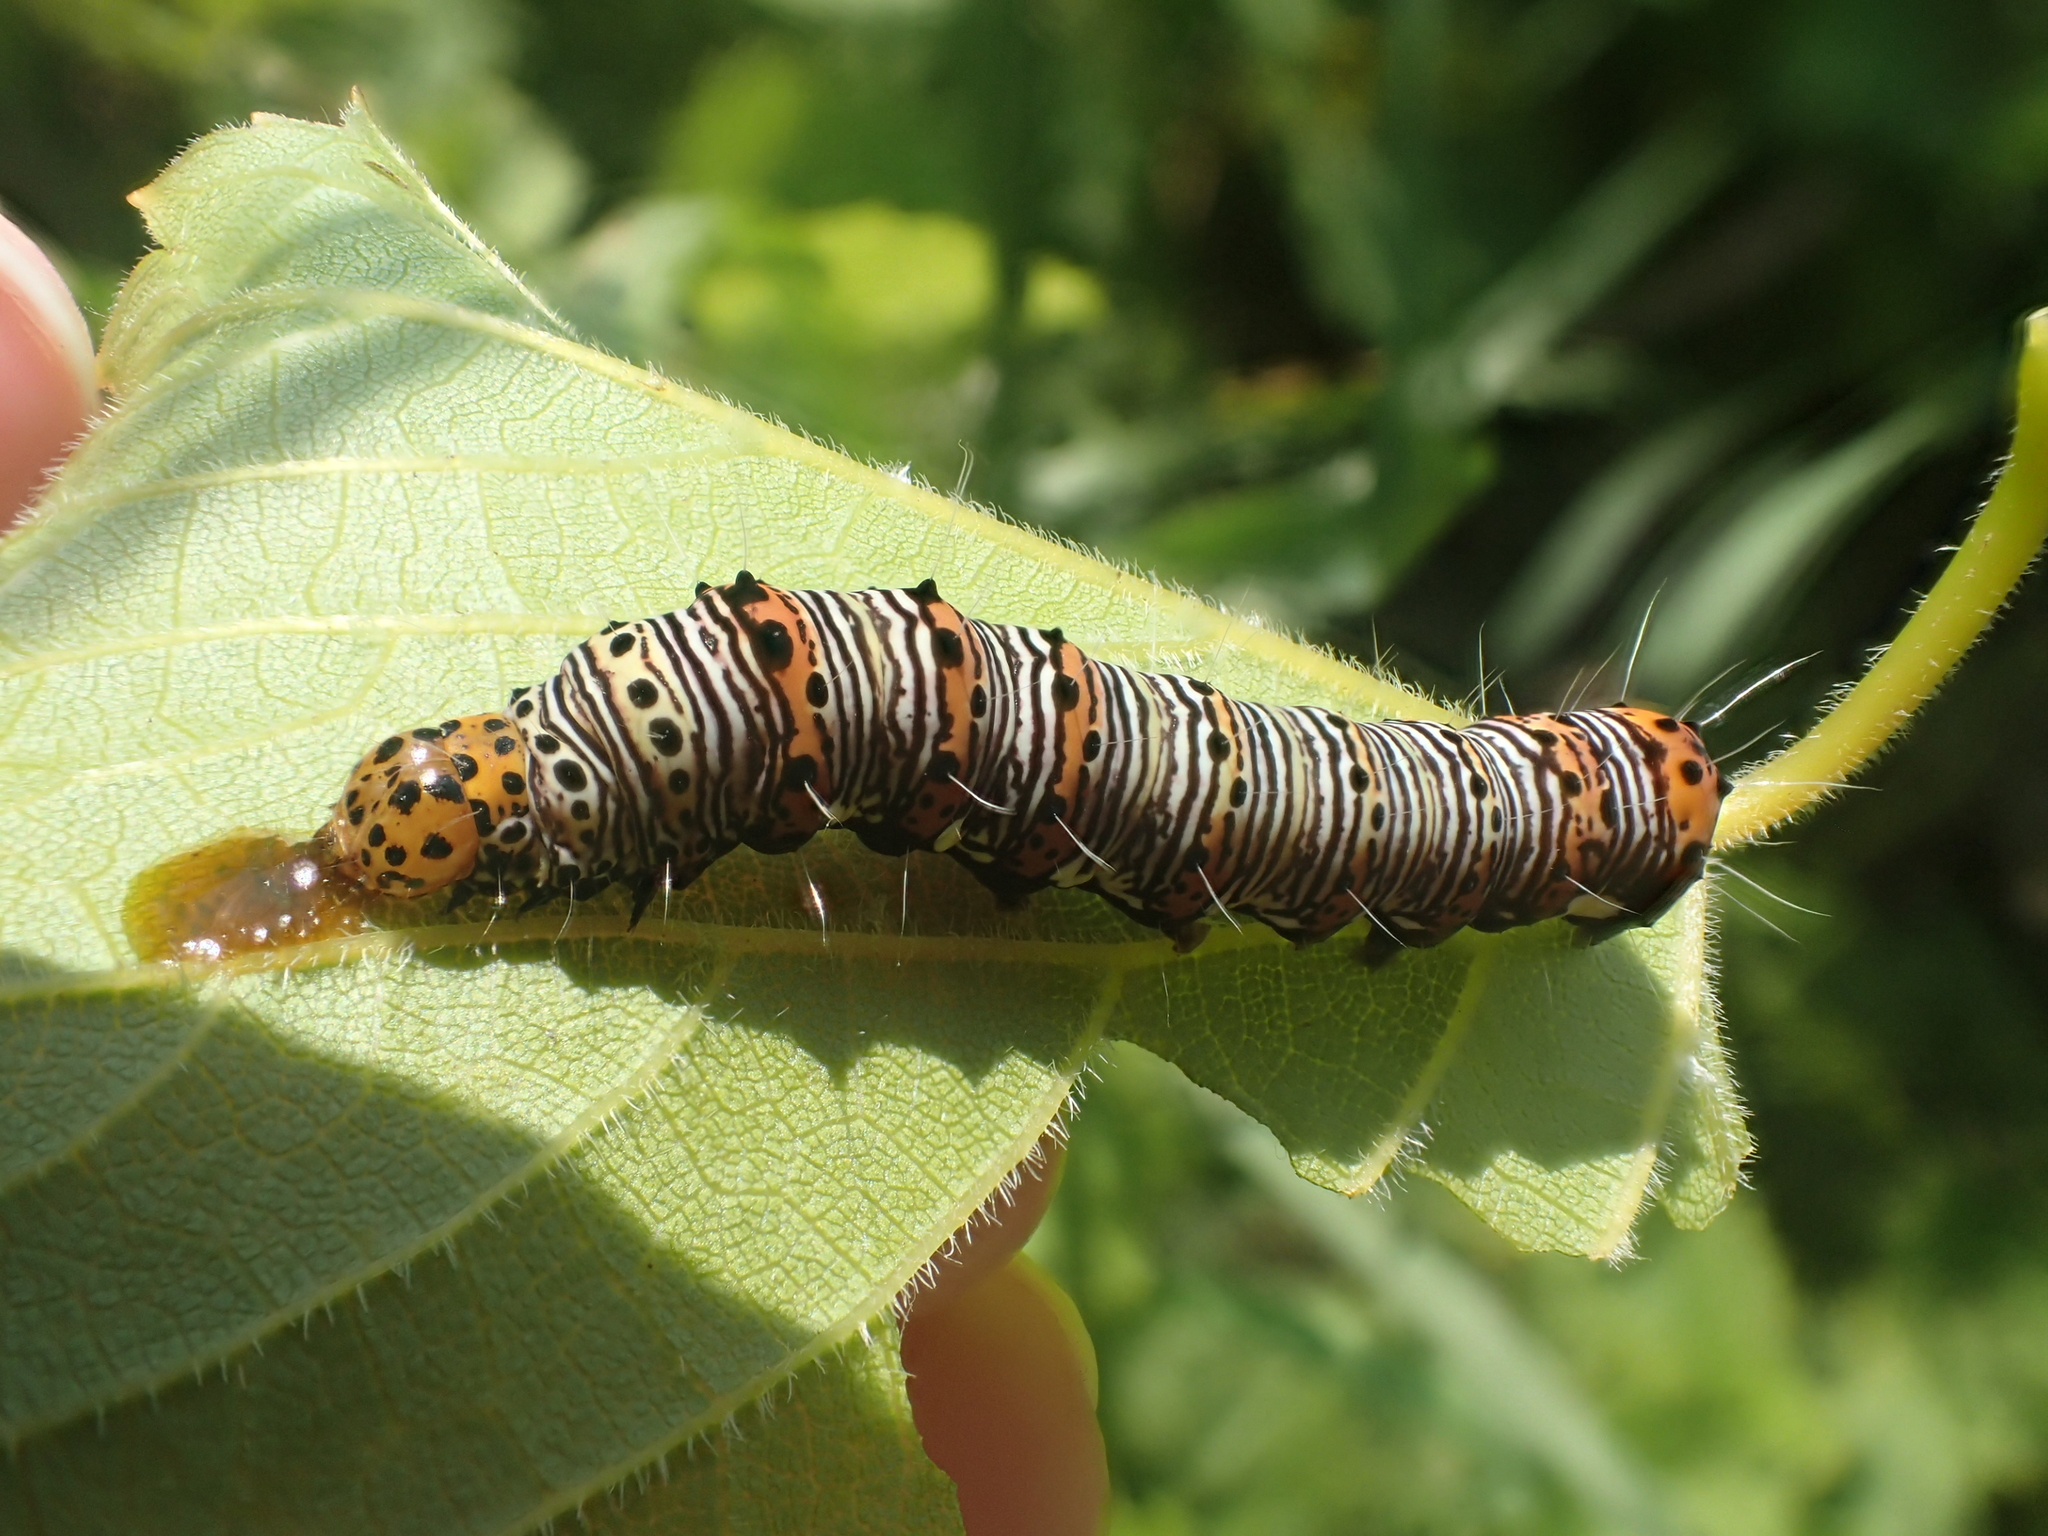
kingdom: Animalia
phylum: Arthropoda
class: Insecta
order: Lepidoptera
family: Noctuidae
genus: Alypia
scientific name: Alypia octomaculata
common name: Eight-spotted forester
